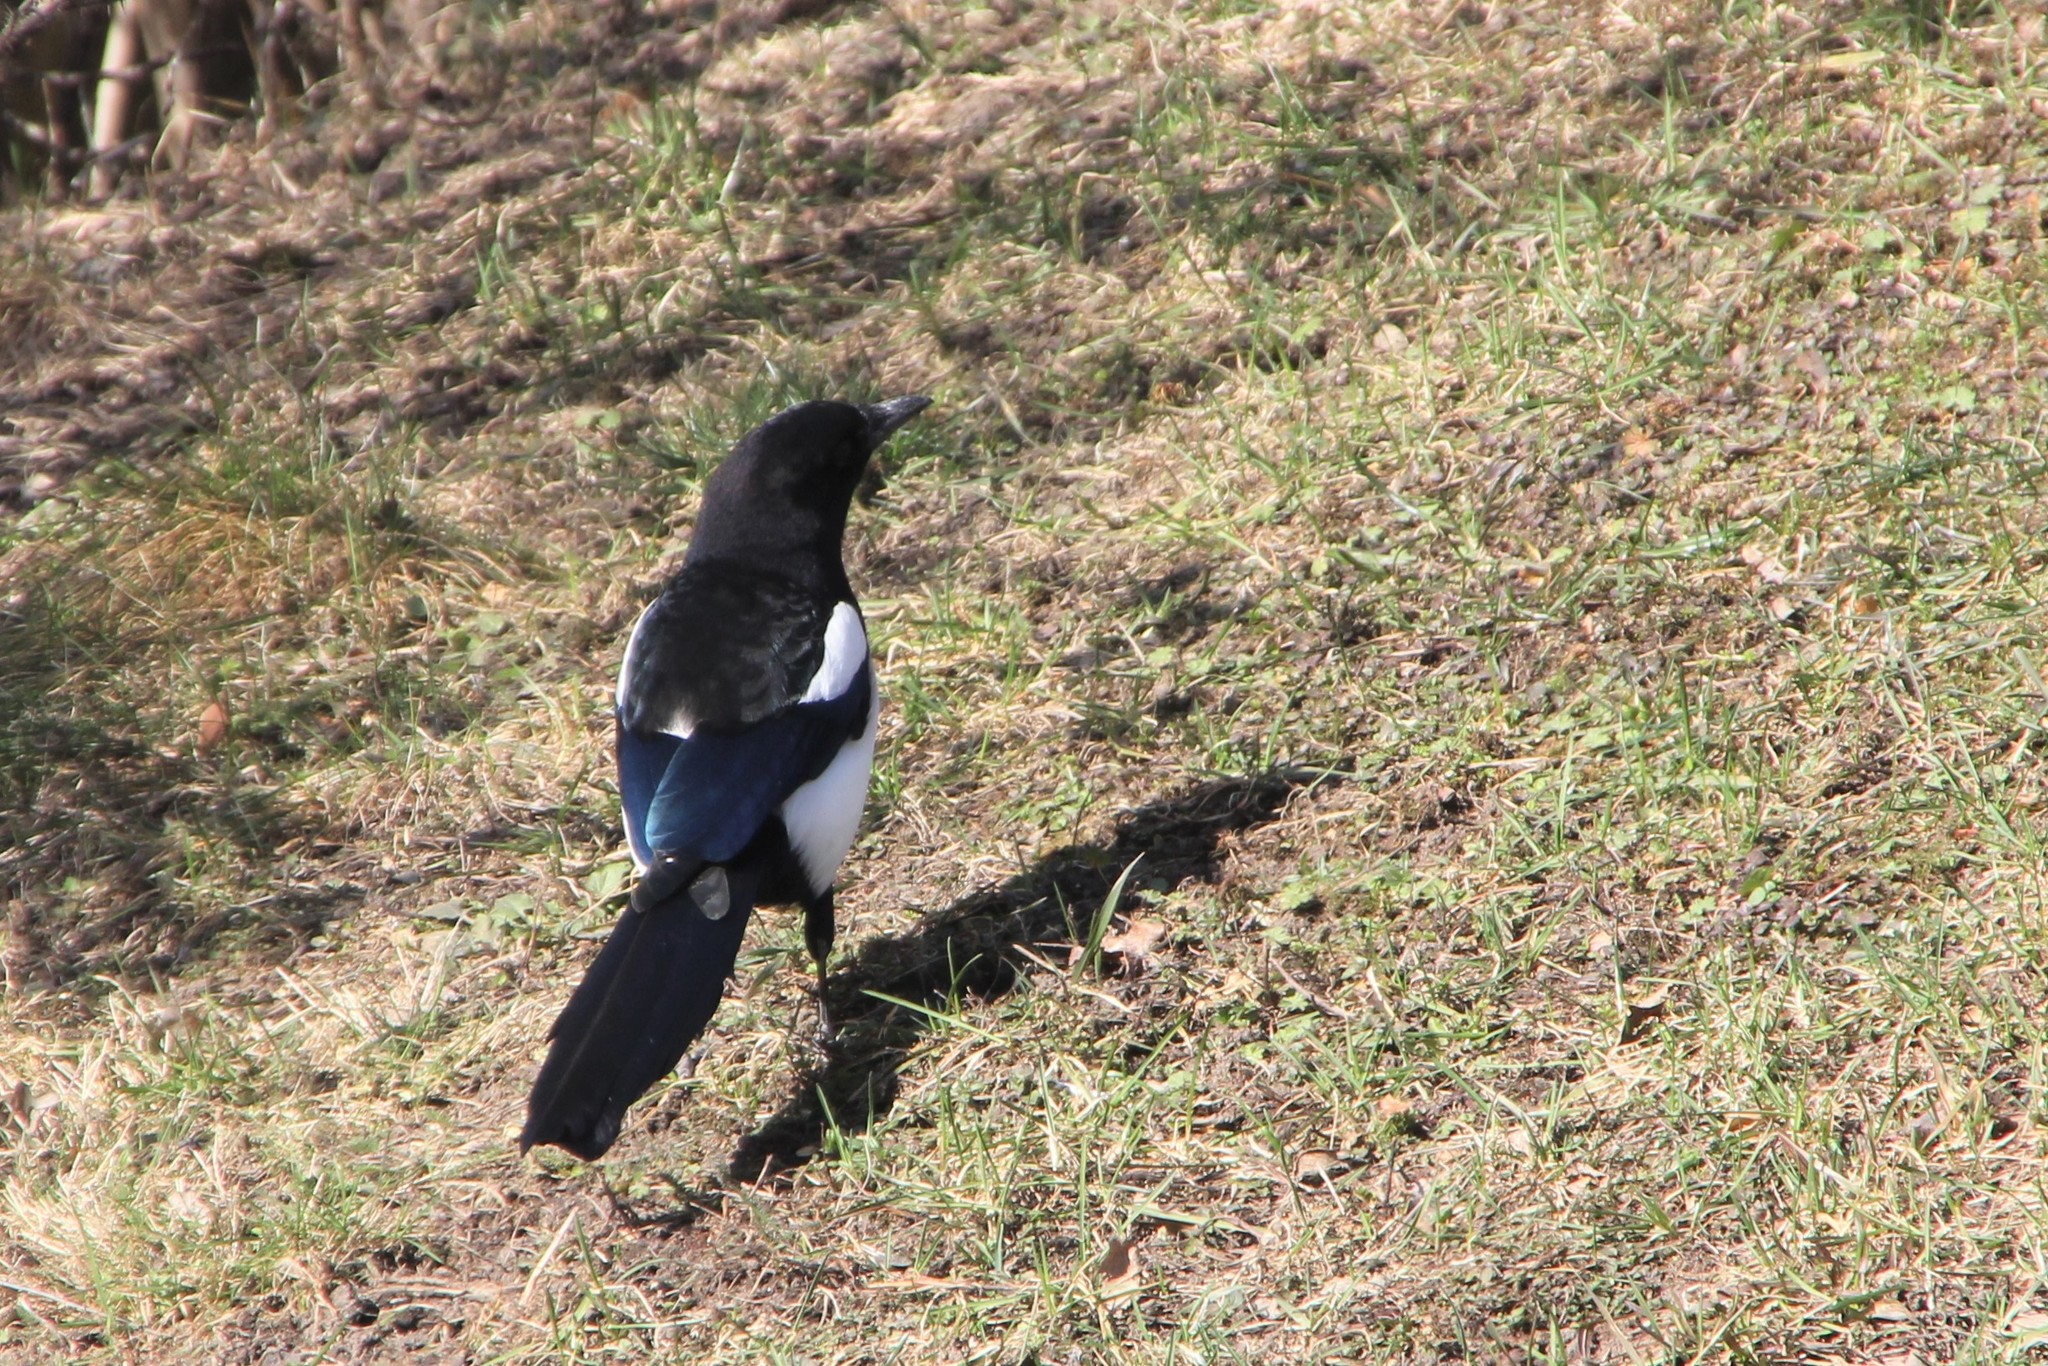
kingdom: Animalia
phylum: Chordata
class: Aves
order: Passeriformes
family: Corvidae
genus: Pica
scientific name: Pica pica
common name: Eurasian magpie
